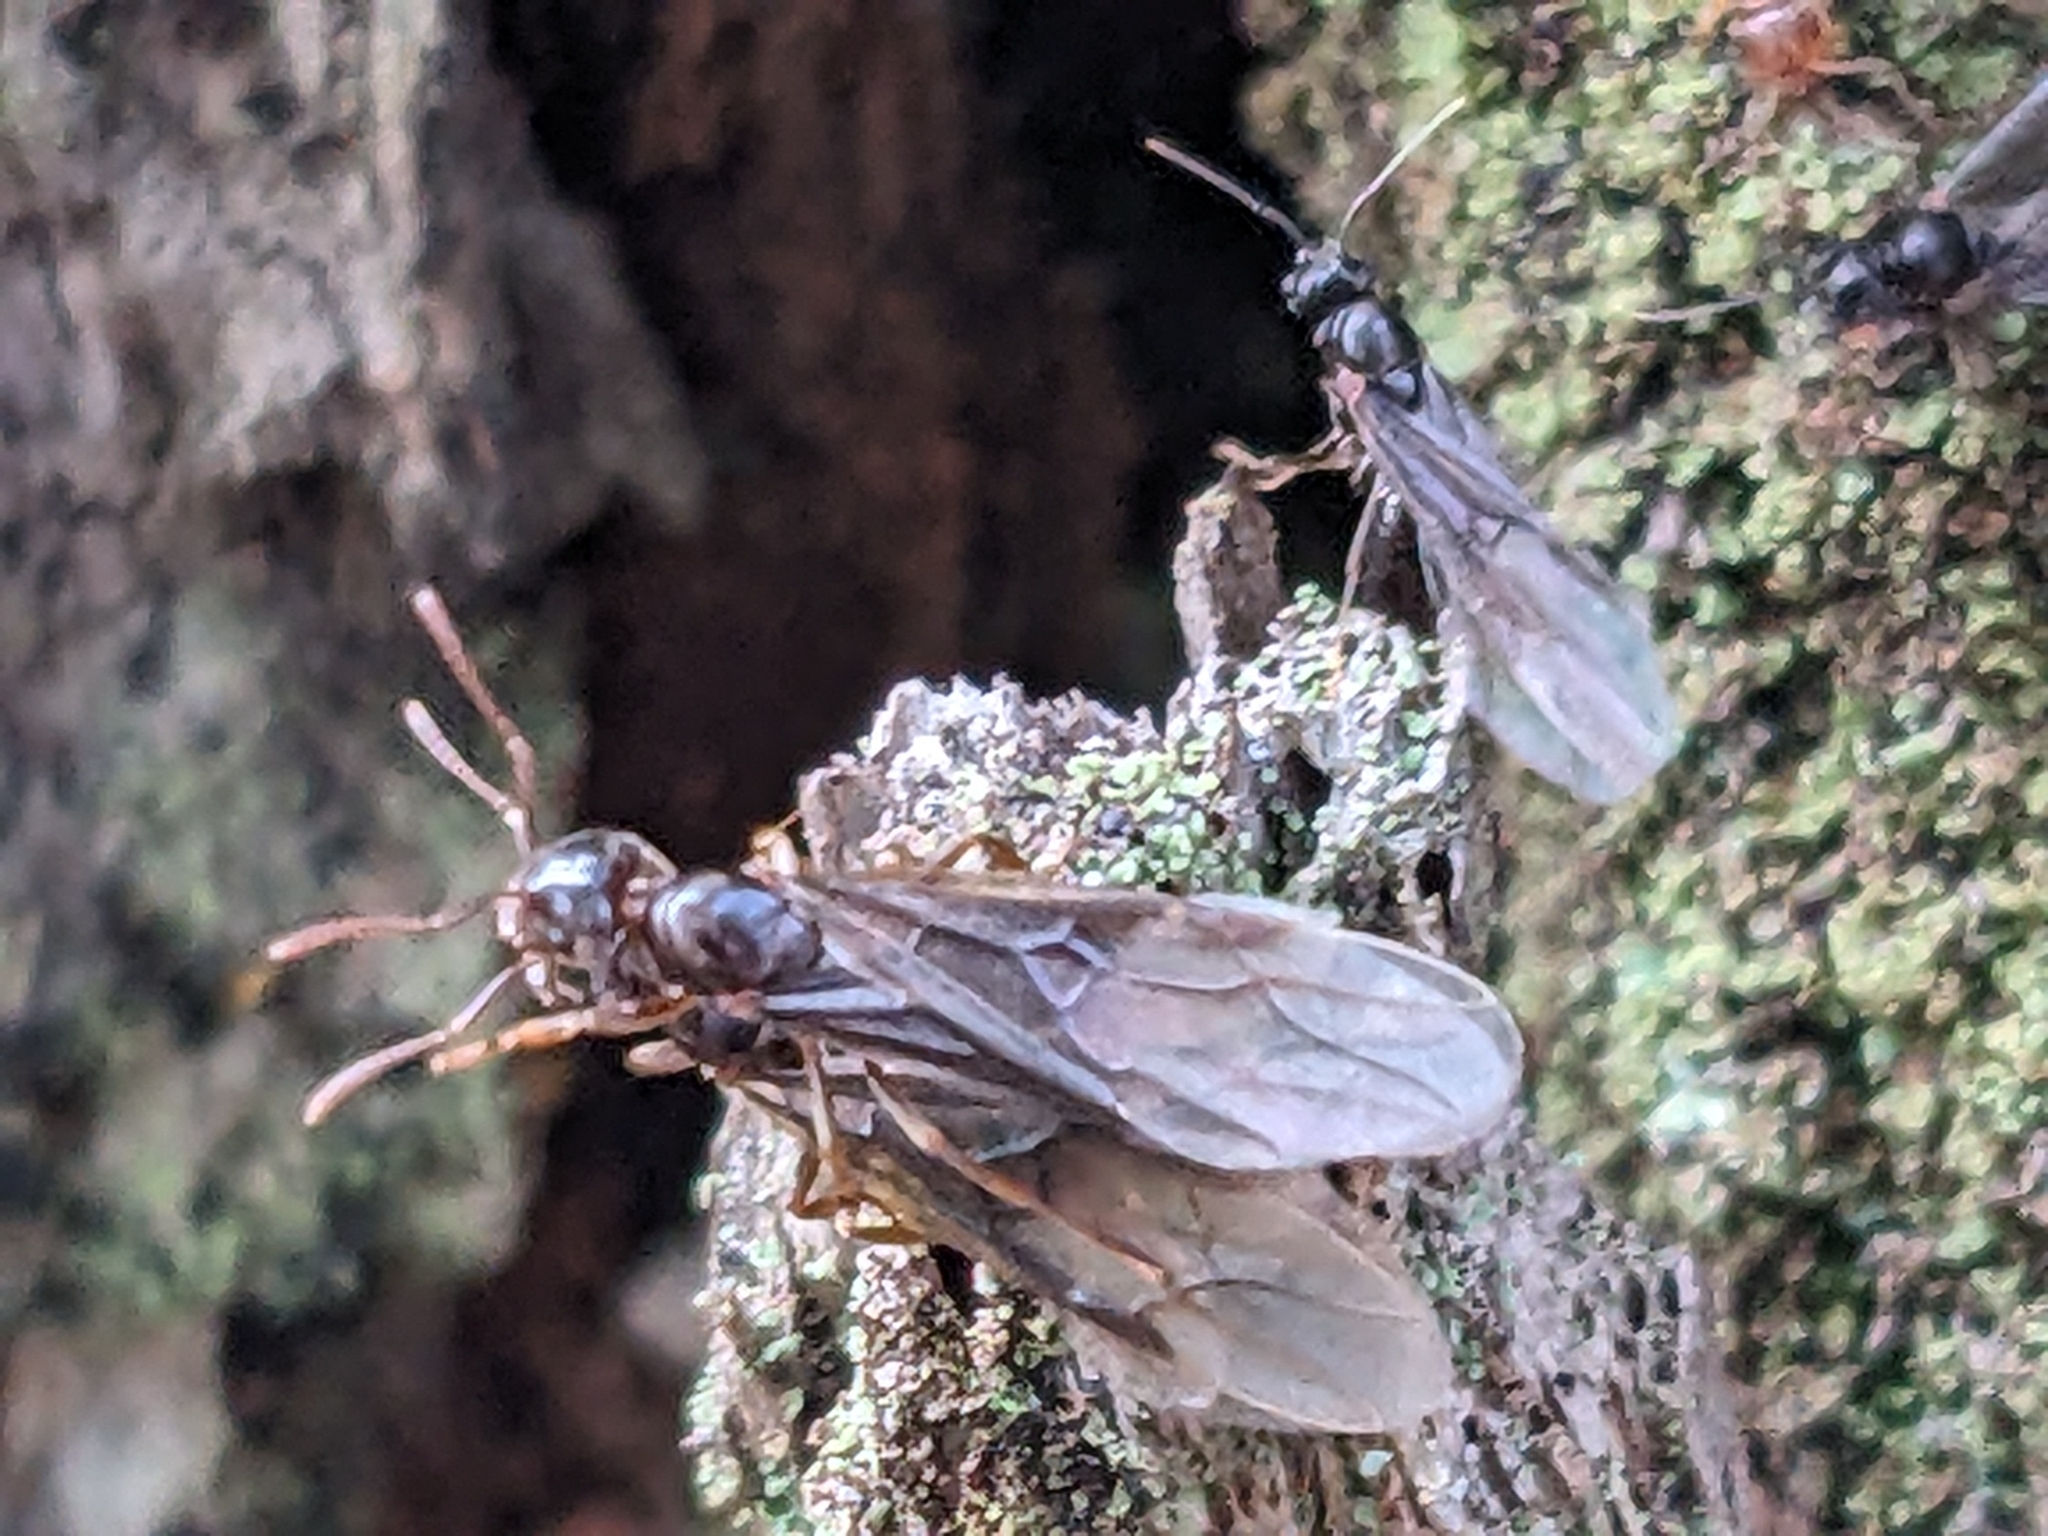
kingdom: Animalia
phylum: Arthropoda
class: Insecta
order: Hymenoptera
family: Formicidae
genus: Lasius
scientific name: Lasius aphidicola
